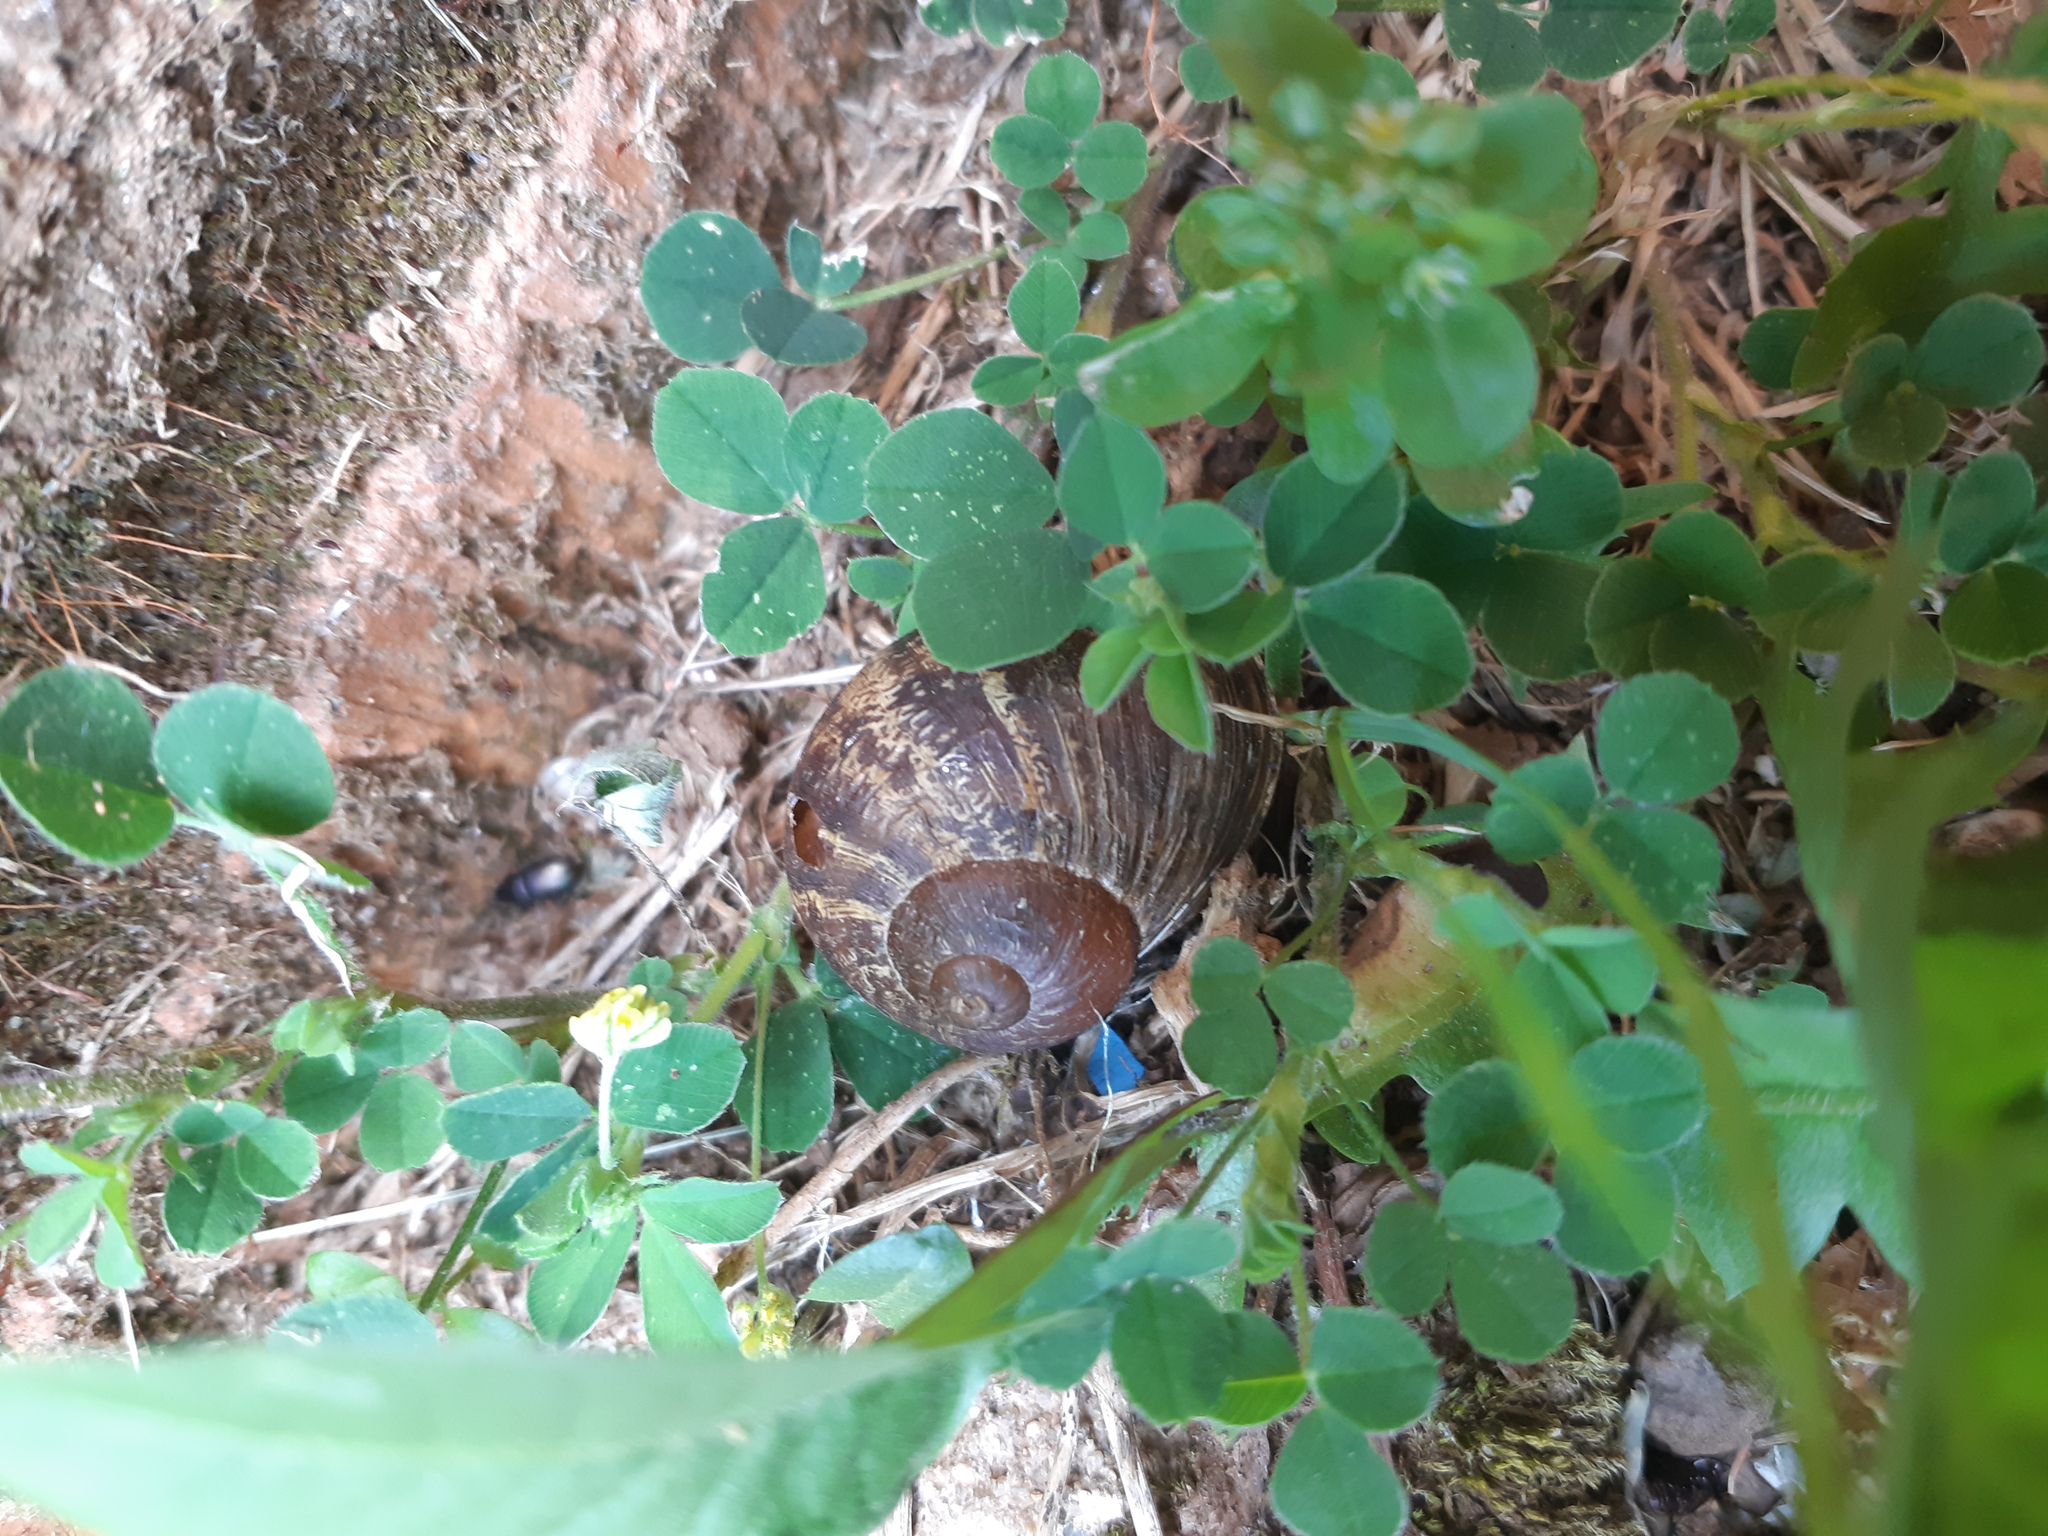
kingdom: Animalia
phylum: Mollusca
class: Gastropoda
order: Stylommatophora
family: Helicidae
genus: Cornu
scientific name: Cornu aspersum
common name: Brown garden snail
